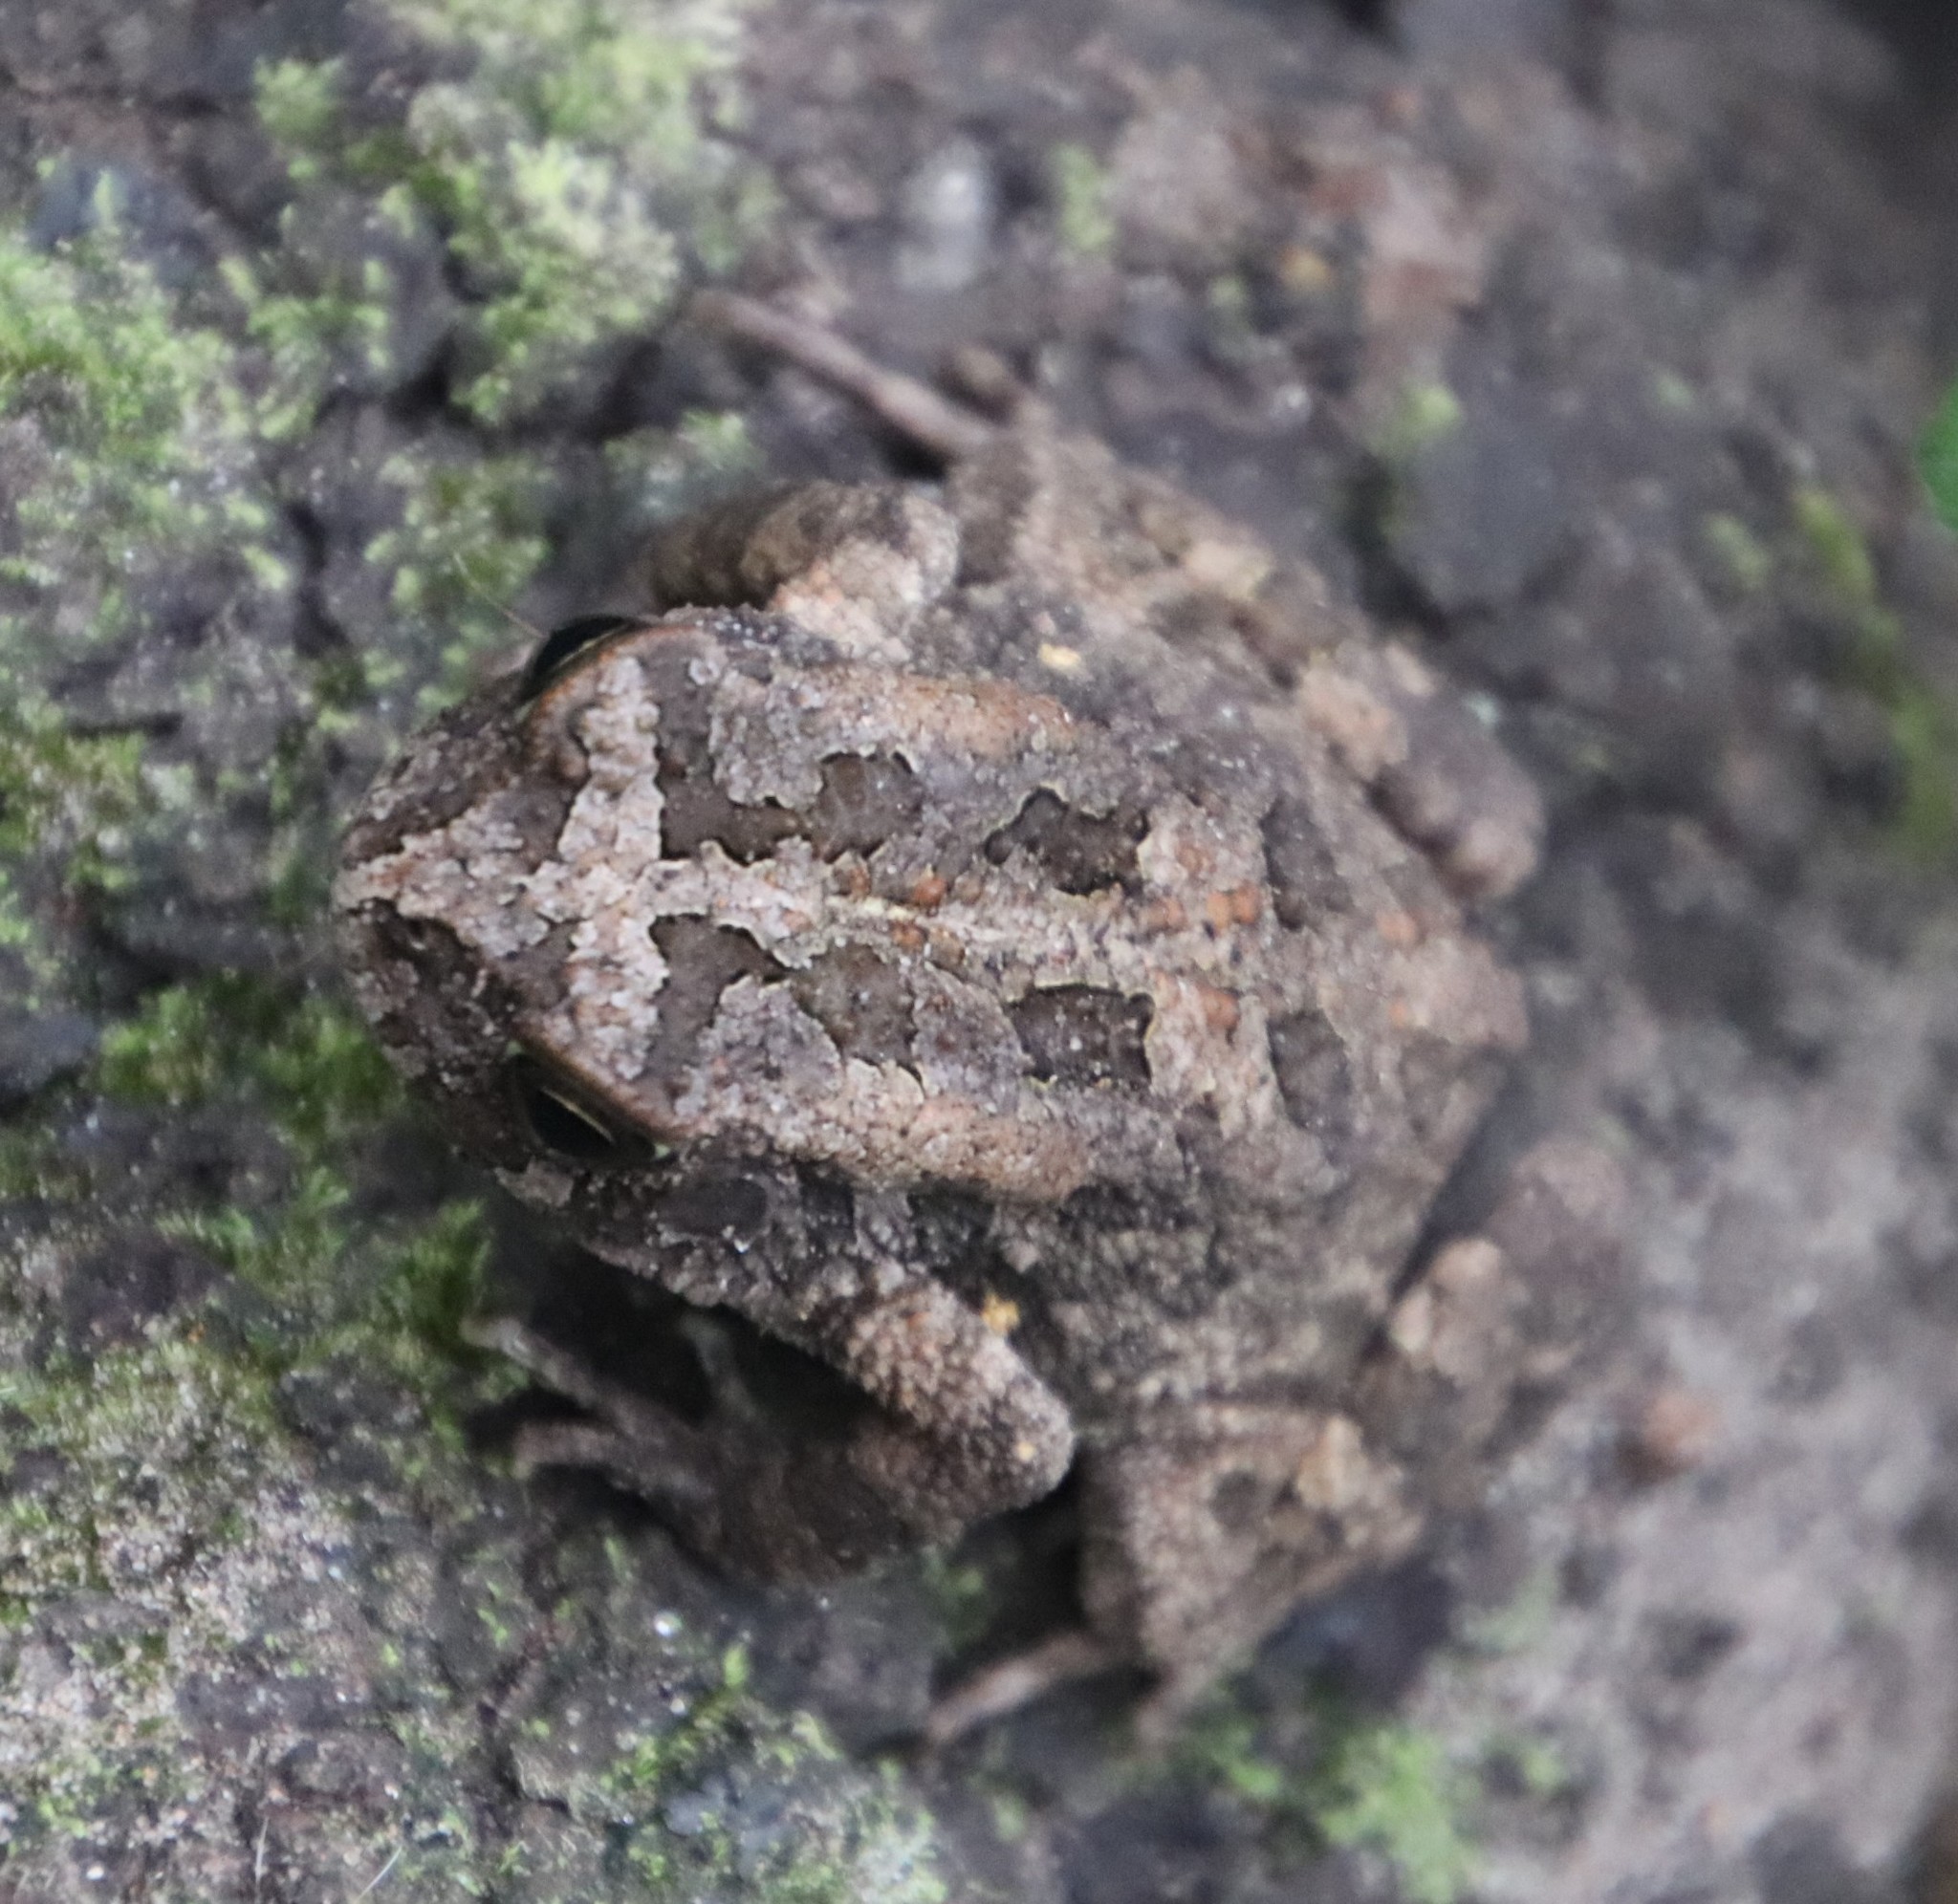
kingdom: Animalia
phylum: Chordata
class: Amphibia
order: Anura
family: Bufonidae
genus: Sclerophrys
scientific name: Sclerophrys gutturalis
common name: African common toad
